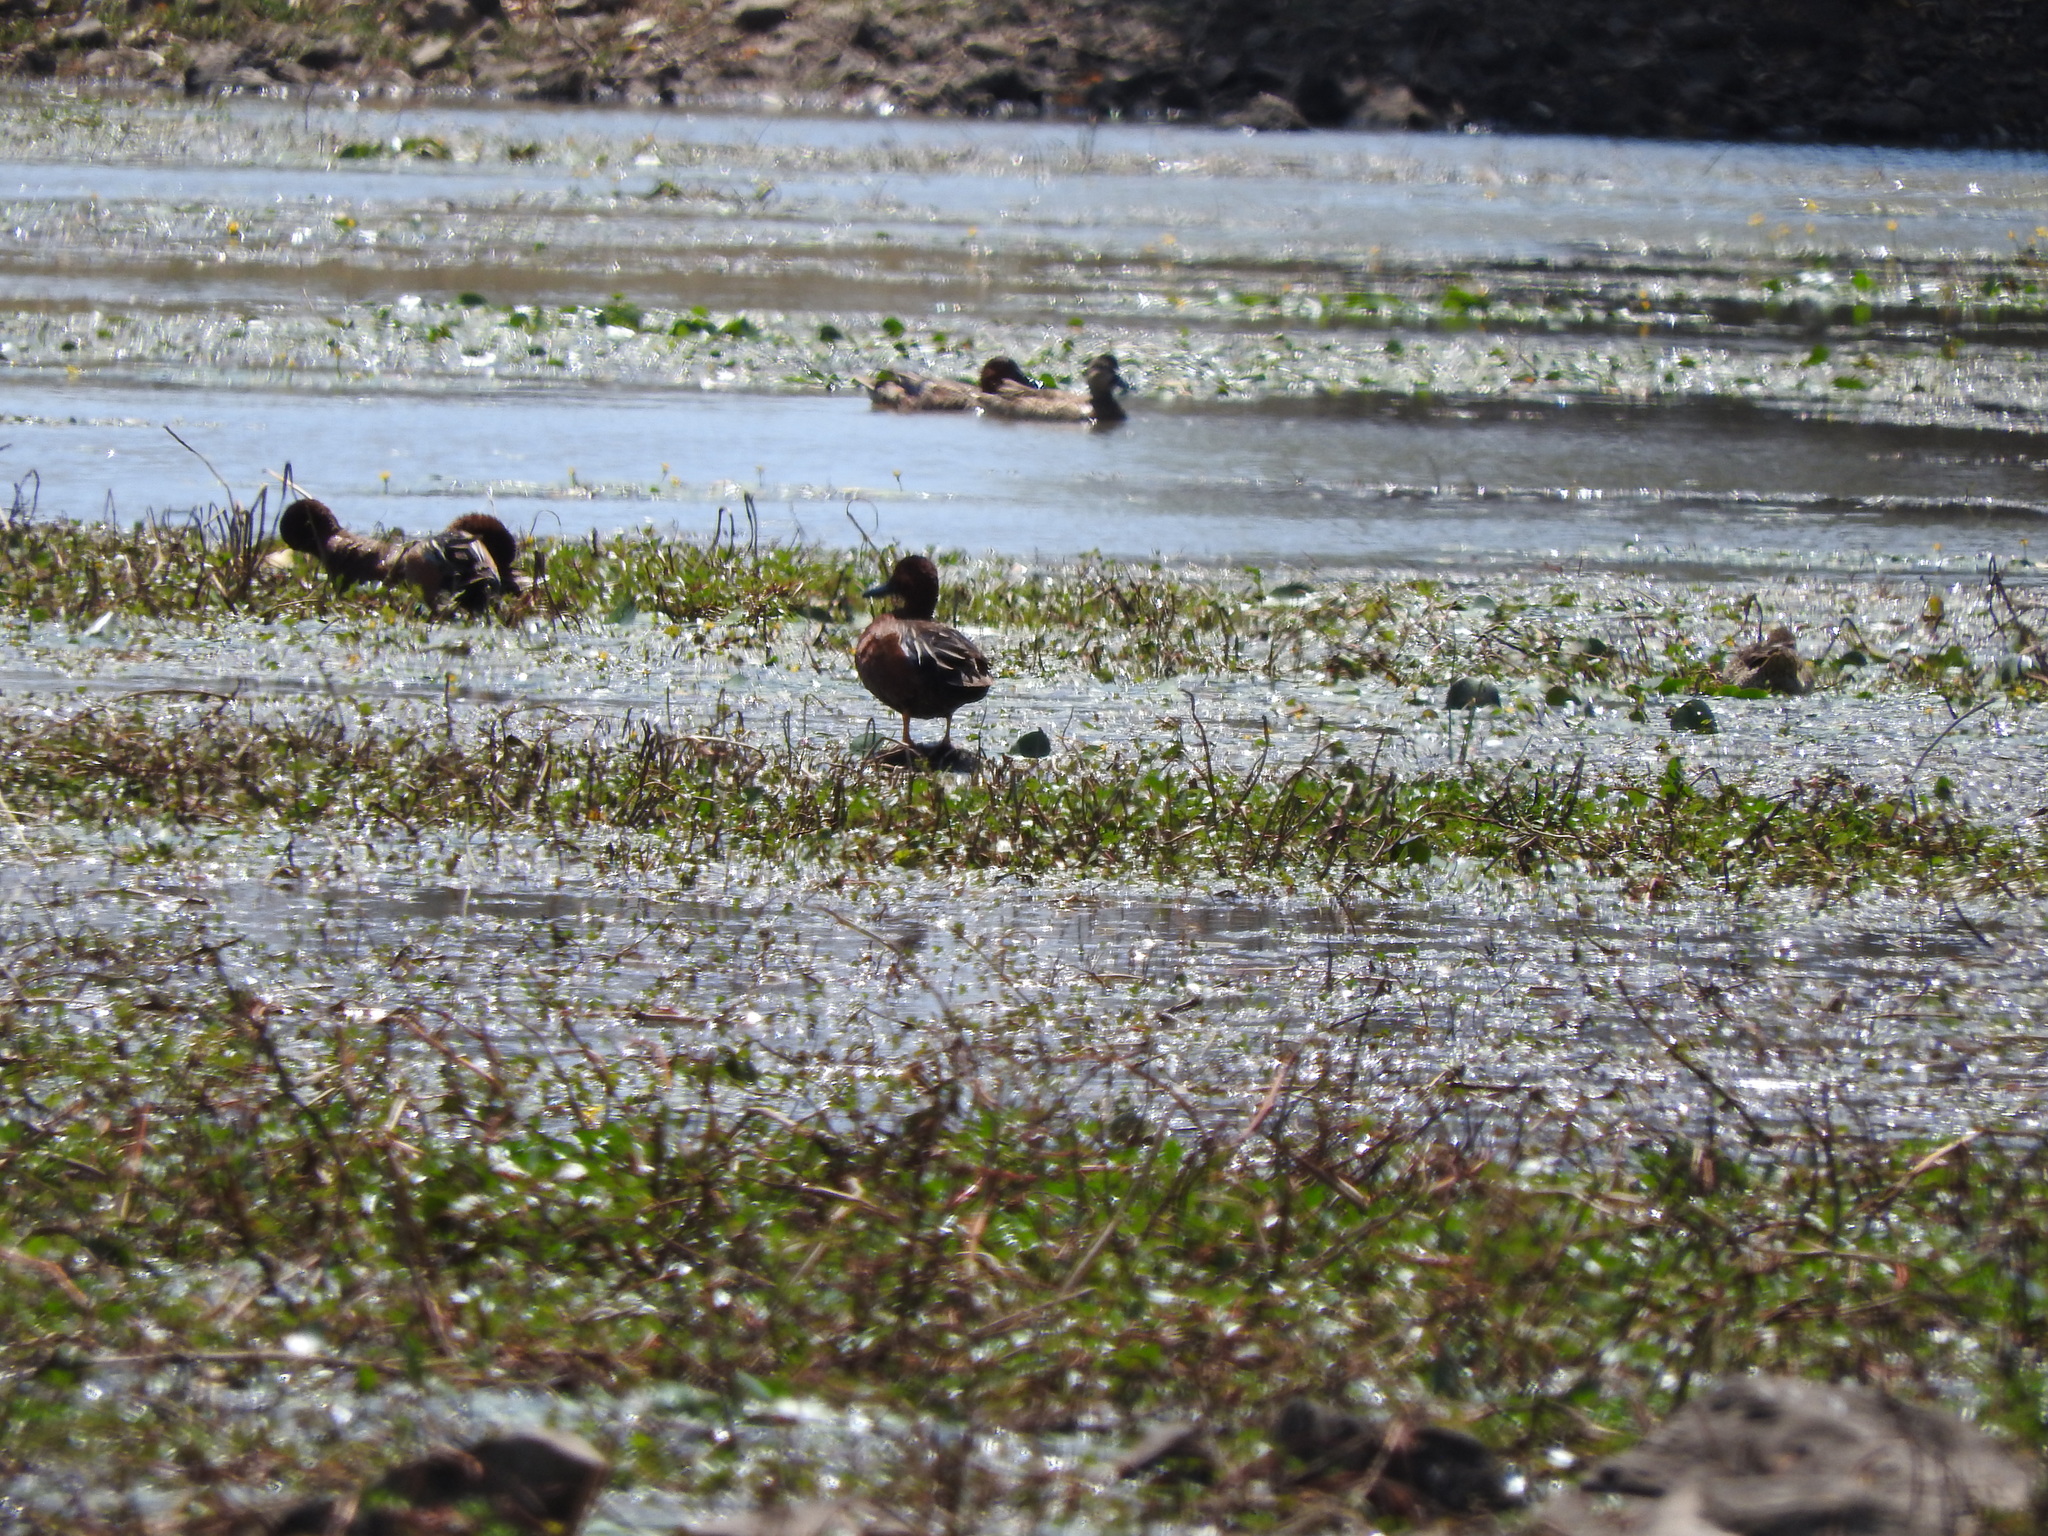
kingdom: Animalia
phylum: Chordata
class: Aves
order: Anseriformes
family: Anatidae
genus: Spatula
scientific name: Spatula cyanoptera
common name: Cinnamon teal
